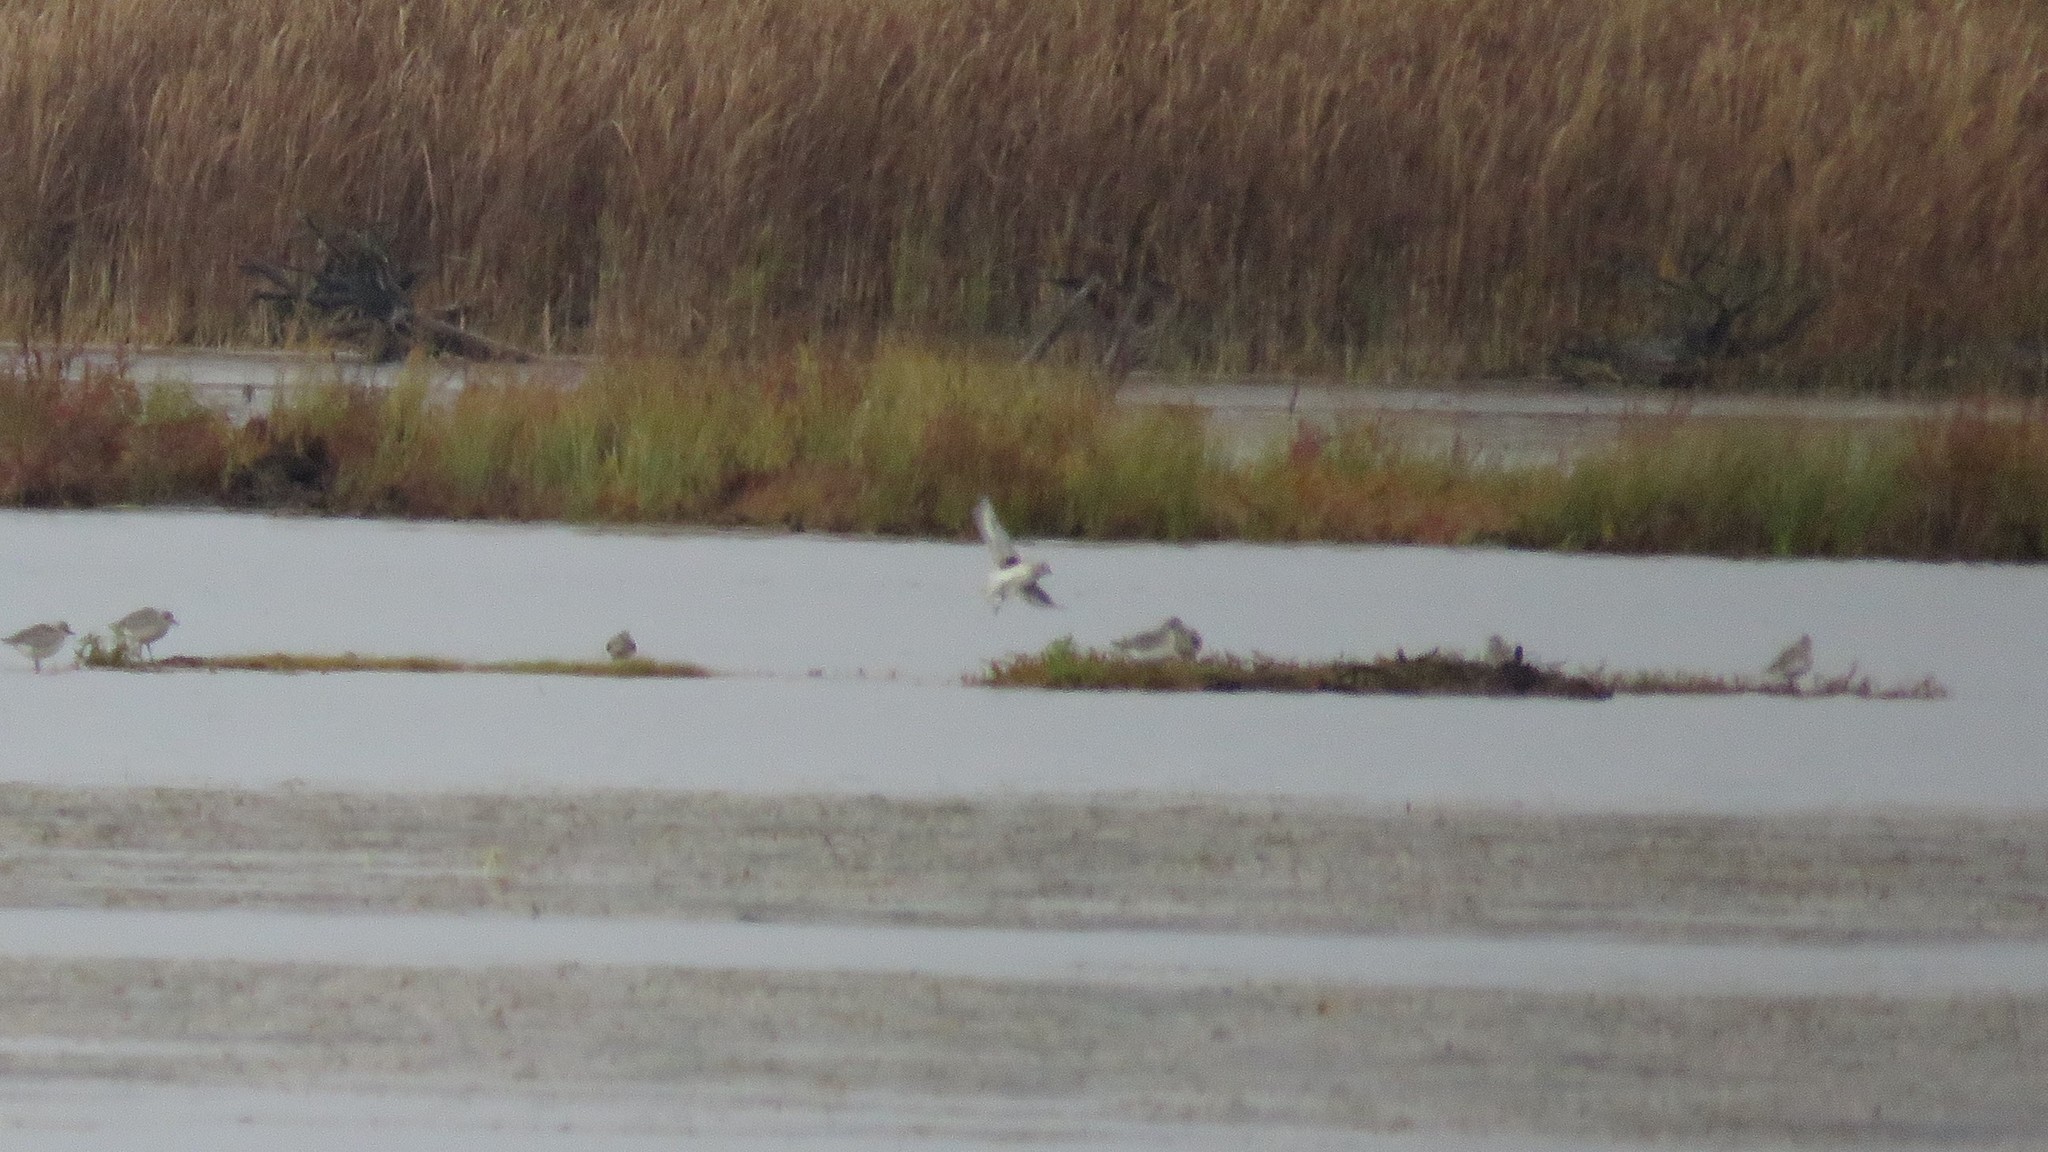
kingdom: Animalia
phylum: Chordata
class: Aves
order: Charadriiformes
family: Charadriidae
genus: Pluvialis
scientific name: Pluvialis squatarola
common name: Grey plover
